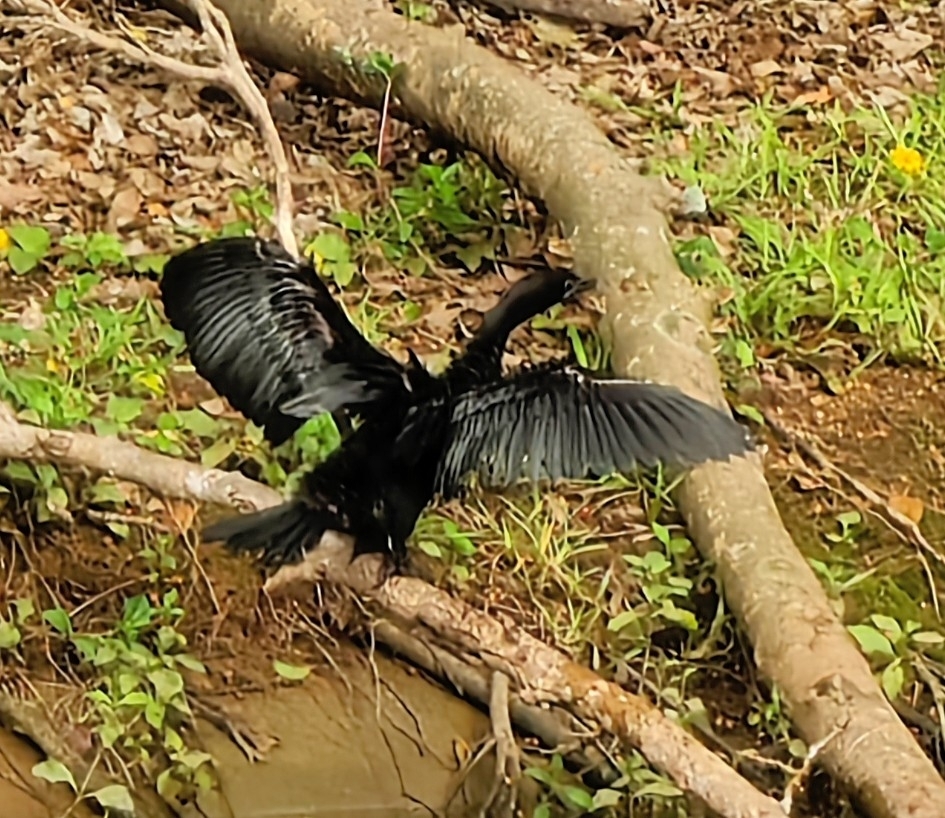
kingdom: Animalia
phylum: Chordata
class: Aves
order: Suliformes
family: Phalacrocoracidae
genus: Microcarbo
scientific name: Microcarbo niger
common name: Little cormorant
